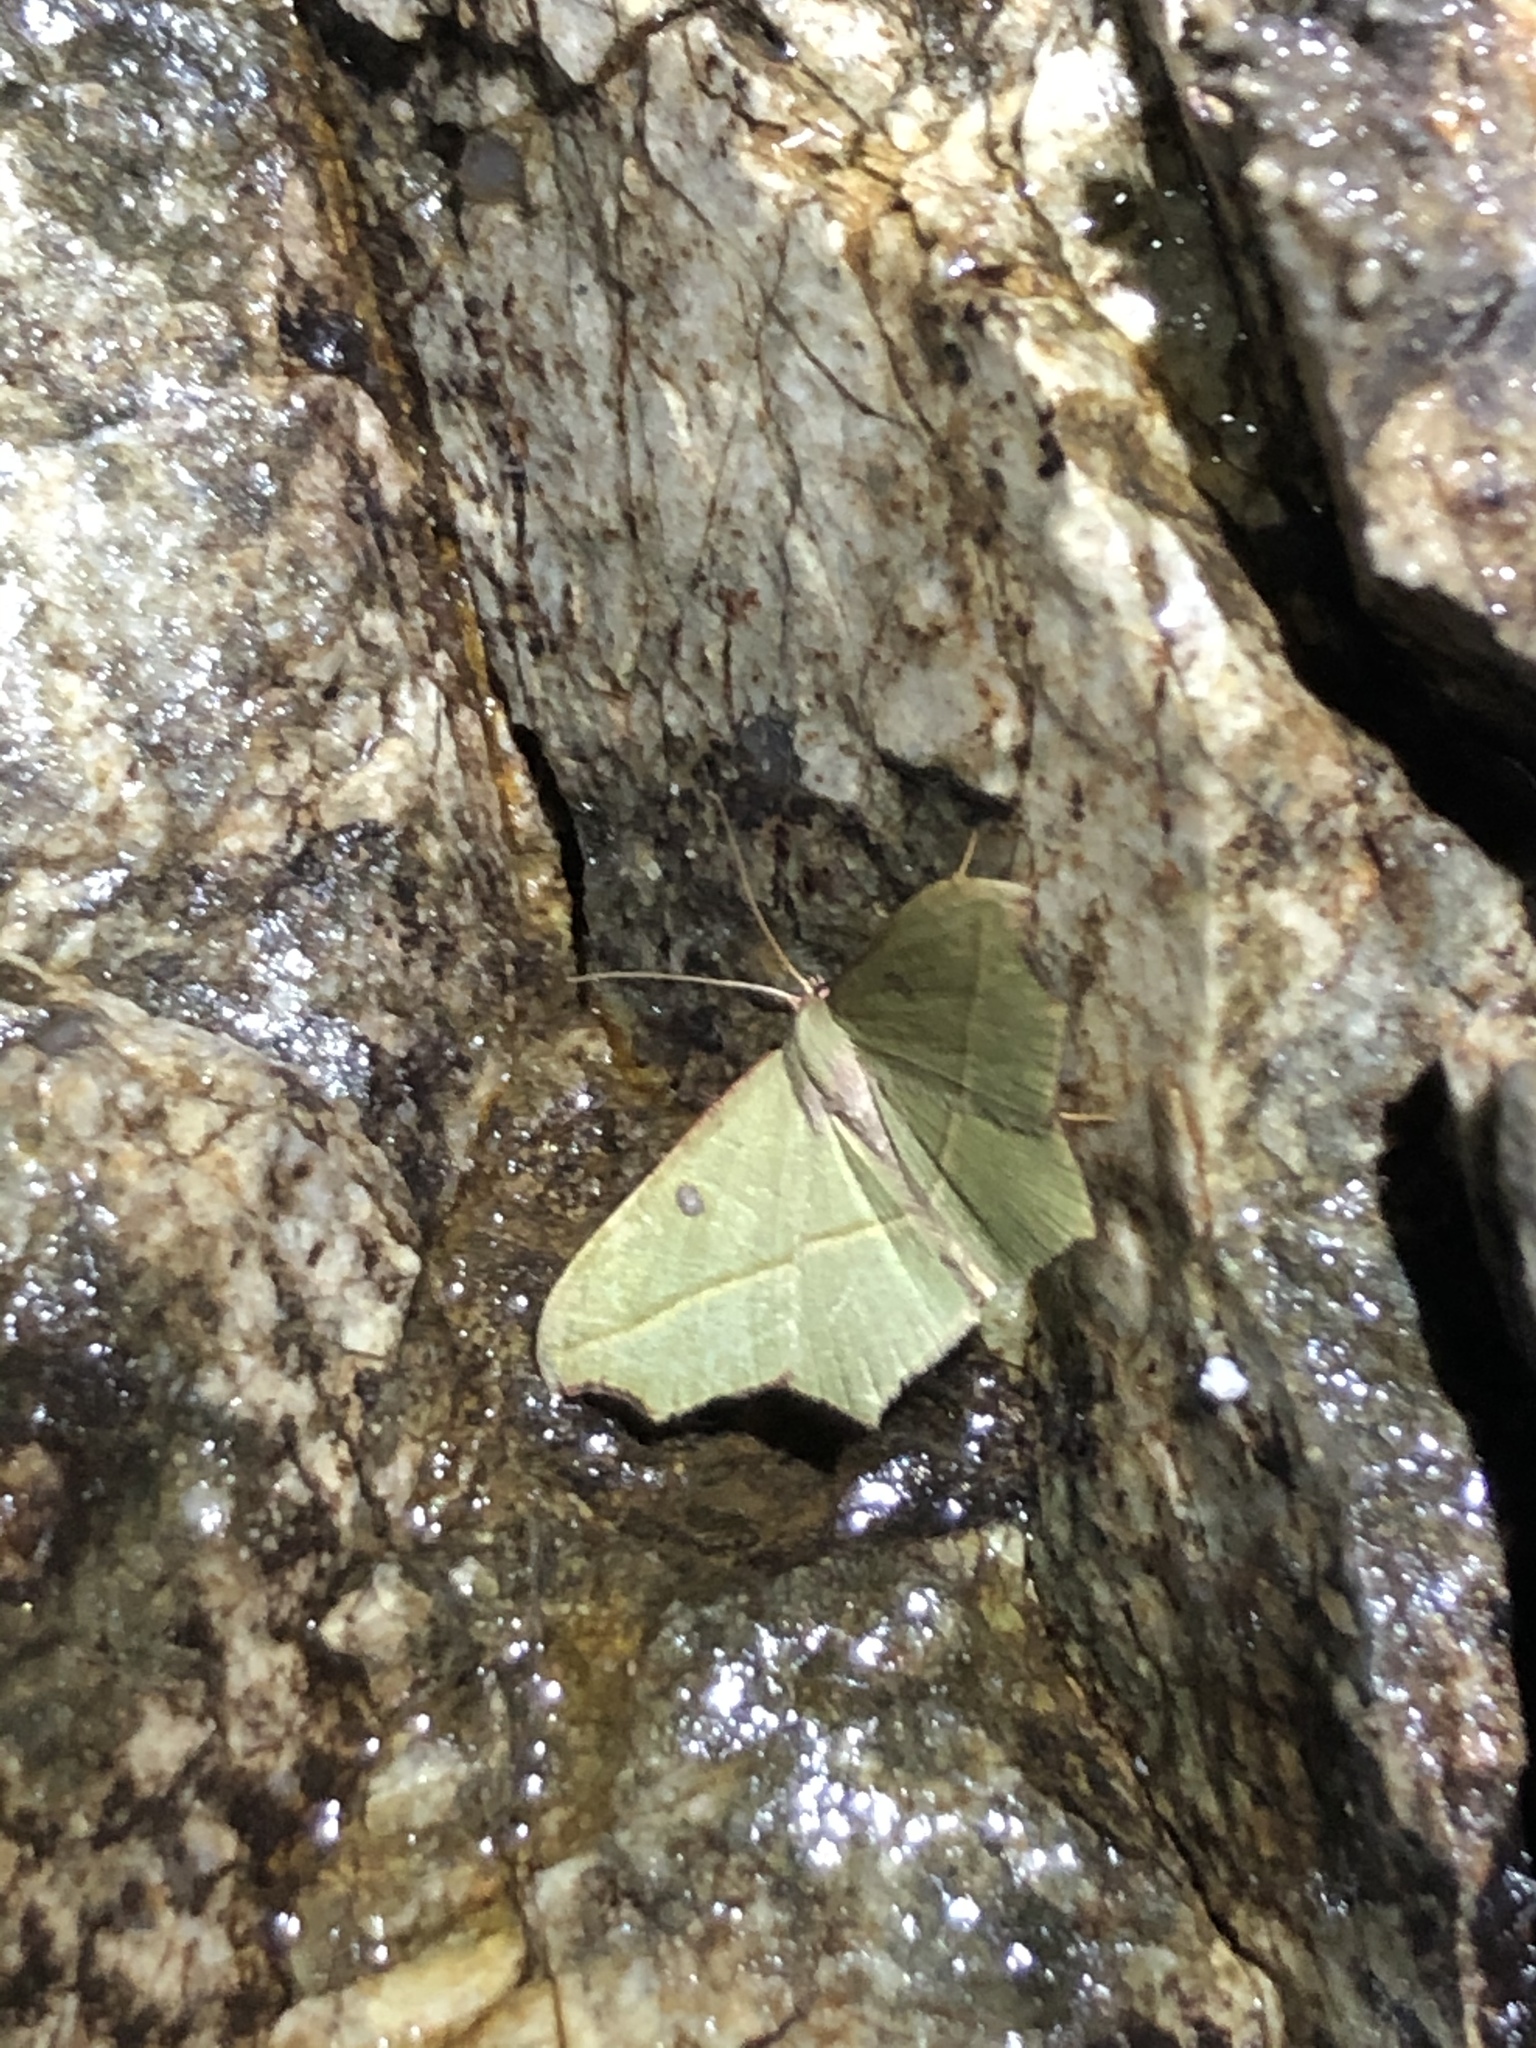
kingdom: Animalia
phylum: Arthropoda
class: Insecta
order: Lepidoptera
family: Geometridae
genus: Traminda
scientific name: Traminda aventiaria
